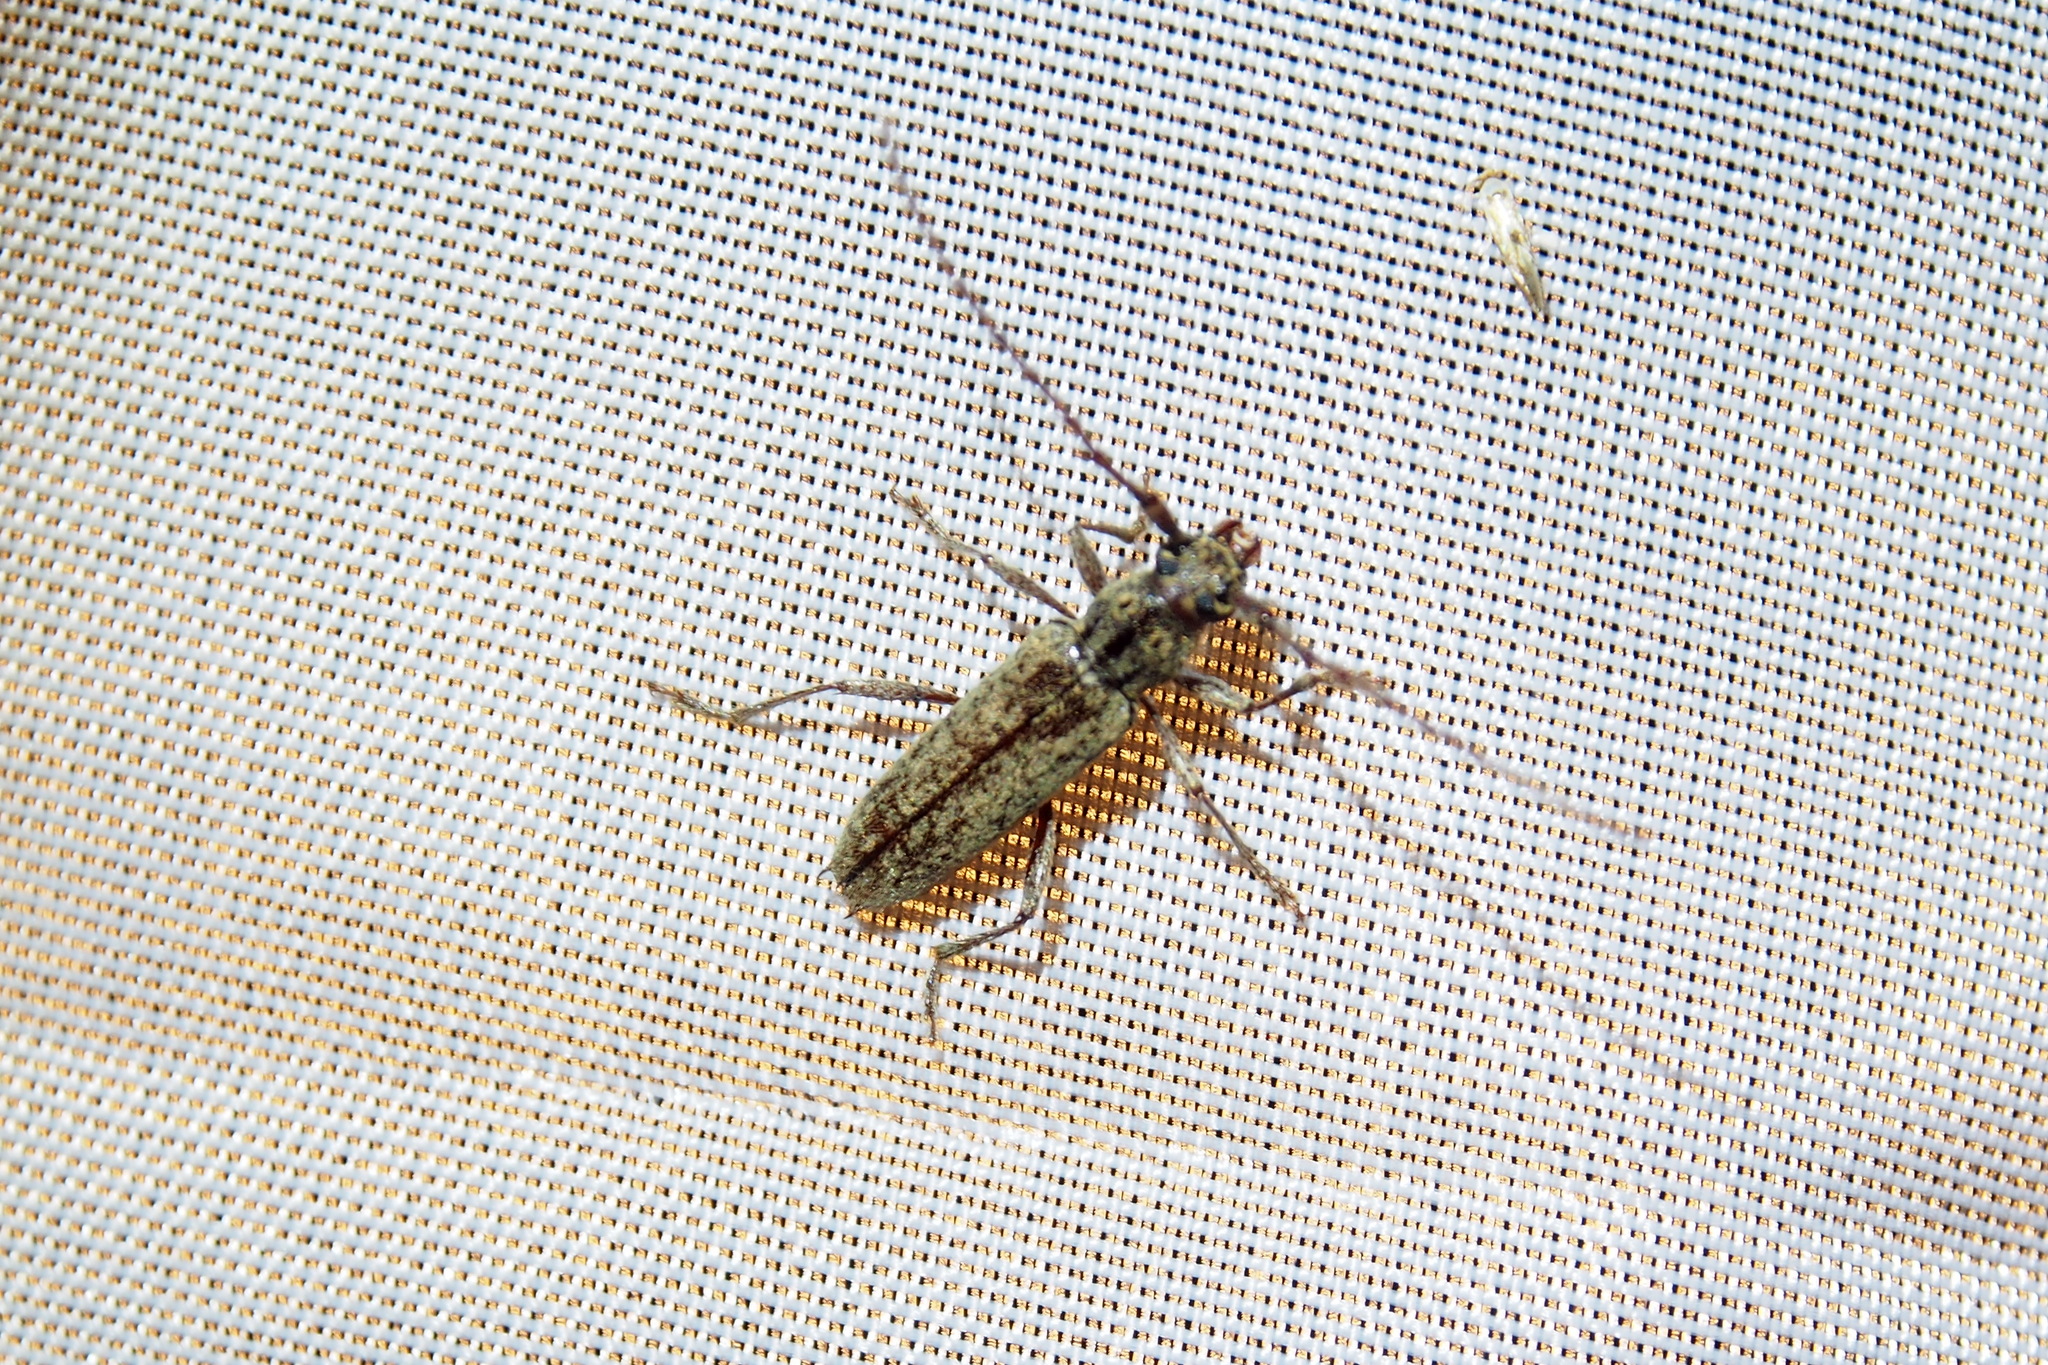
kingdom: Animalia
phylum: Arthropoda
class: Insecta
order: Coleoptera
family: Cerambycidae
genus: Elaphidion
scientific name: Elaphidion mucronatum
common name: Spined oak borer
